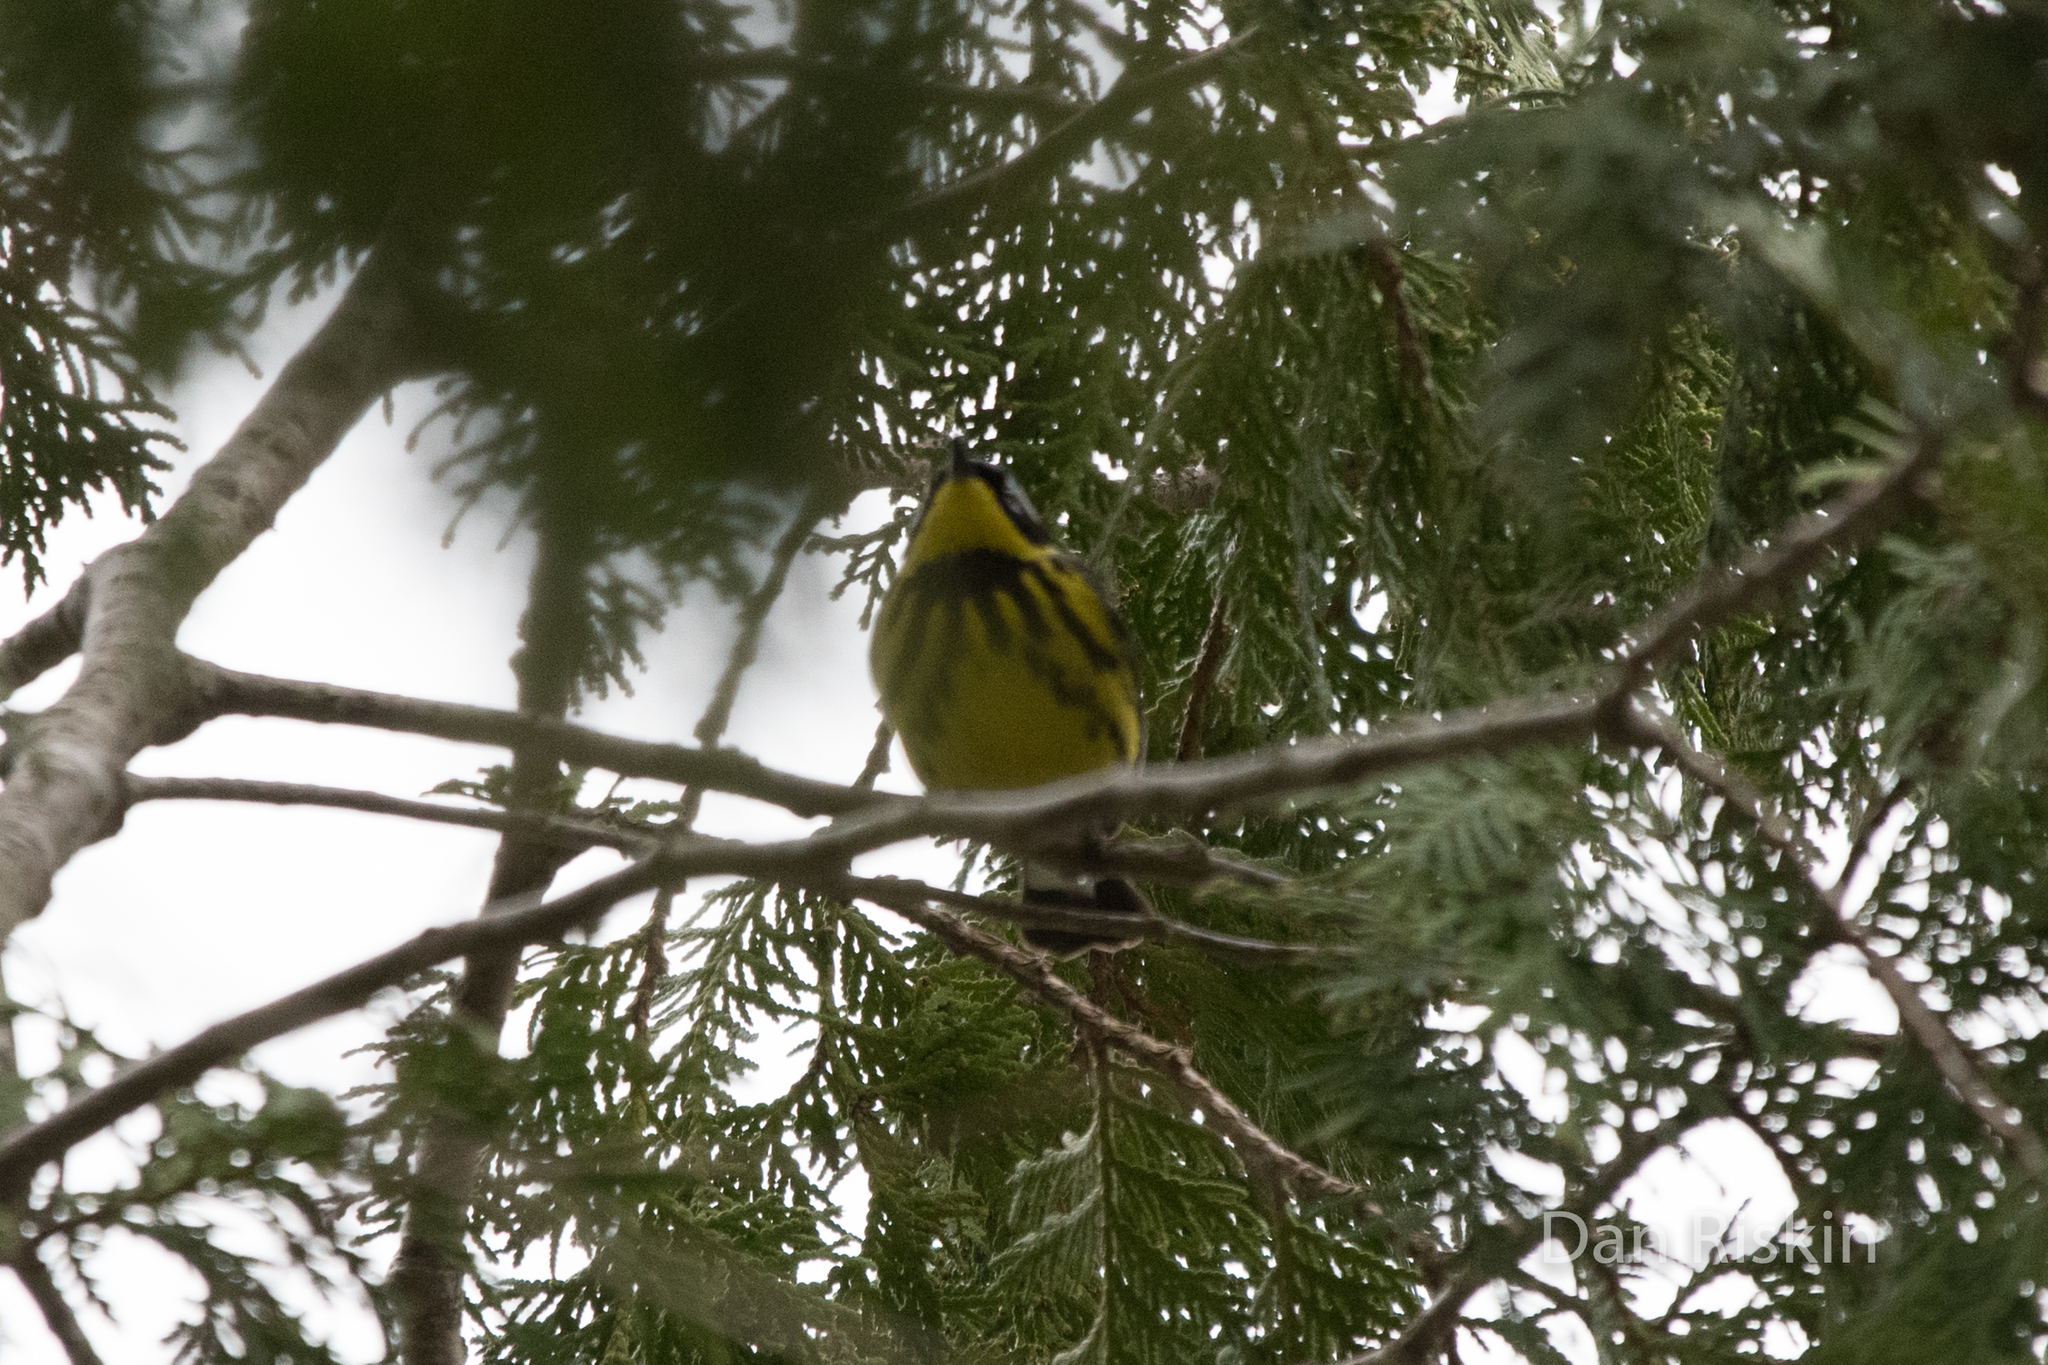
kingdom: Animalia
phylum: Chordata
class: Aves
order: Passeriformes
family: Parulidae
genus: Setophaga
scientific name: Setophaga magnolia
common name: Magnolia warbler
